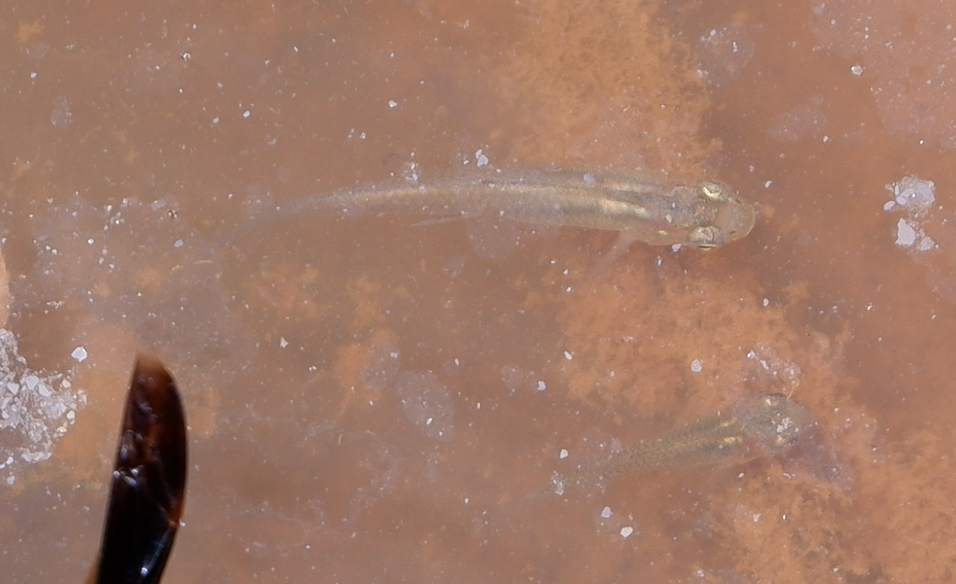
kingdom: Animalia
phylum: Chordata
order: Cyprinodontiformes
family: Poeciliidae
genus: Gambusia
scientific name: Gambusia affinis
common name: Mosquitofish
